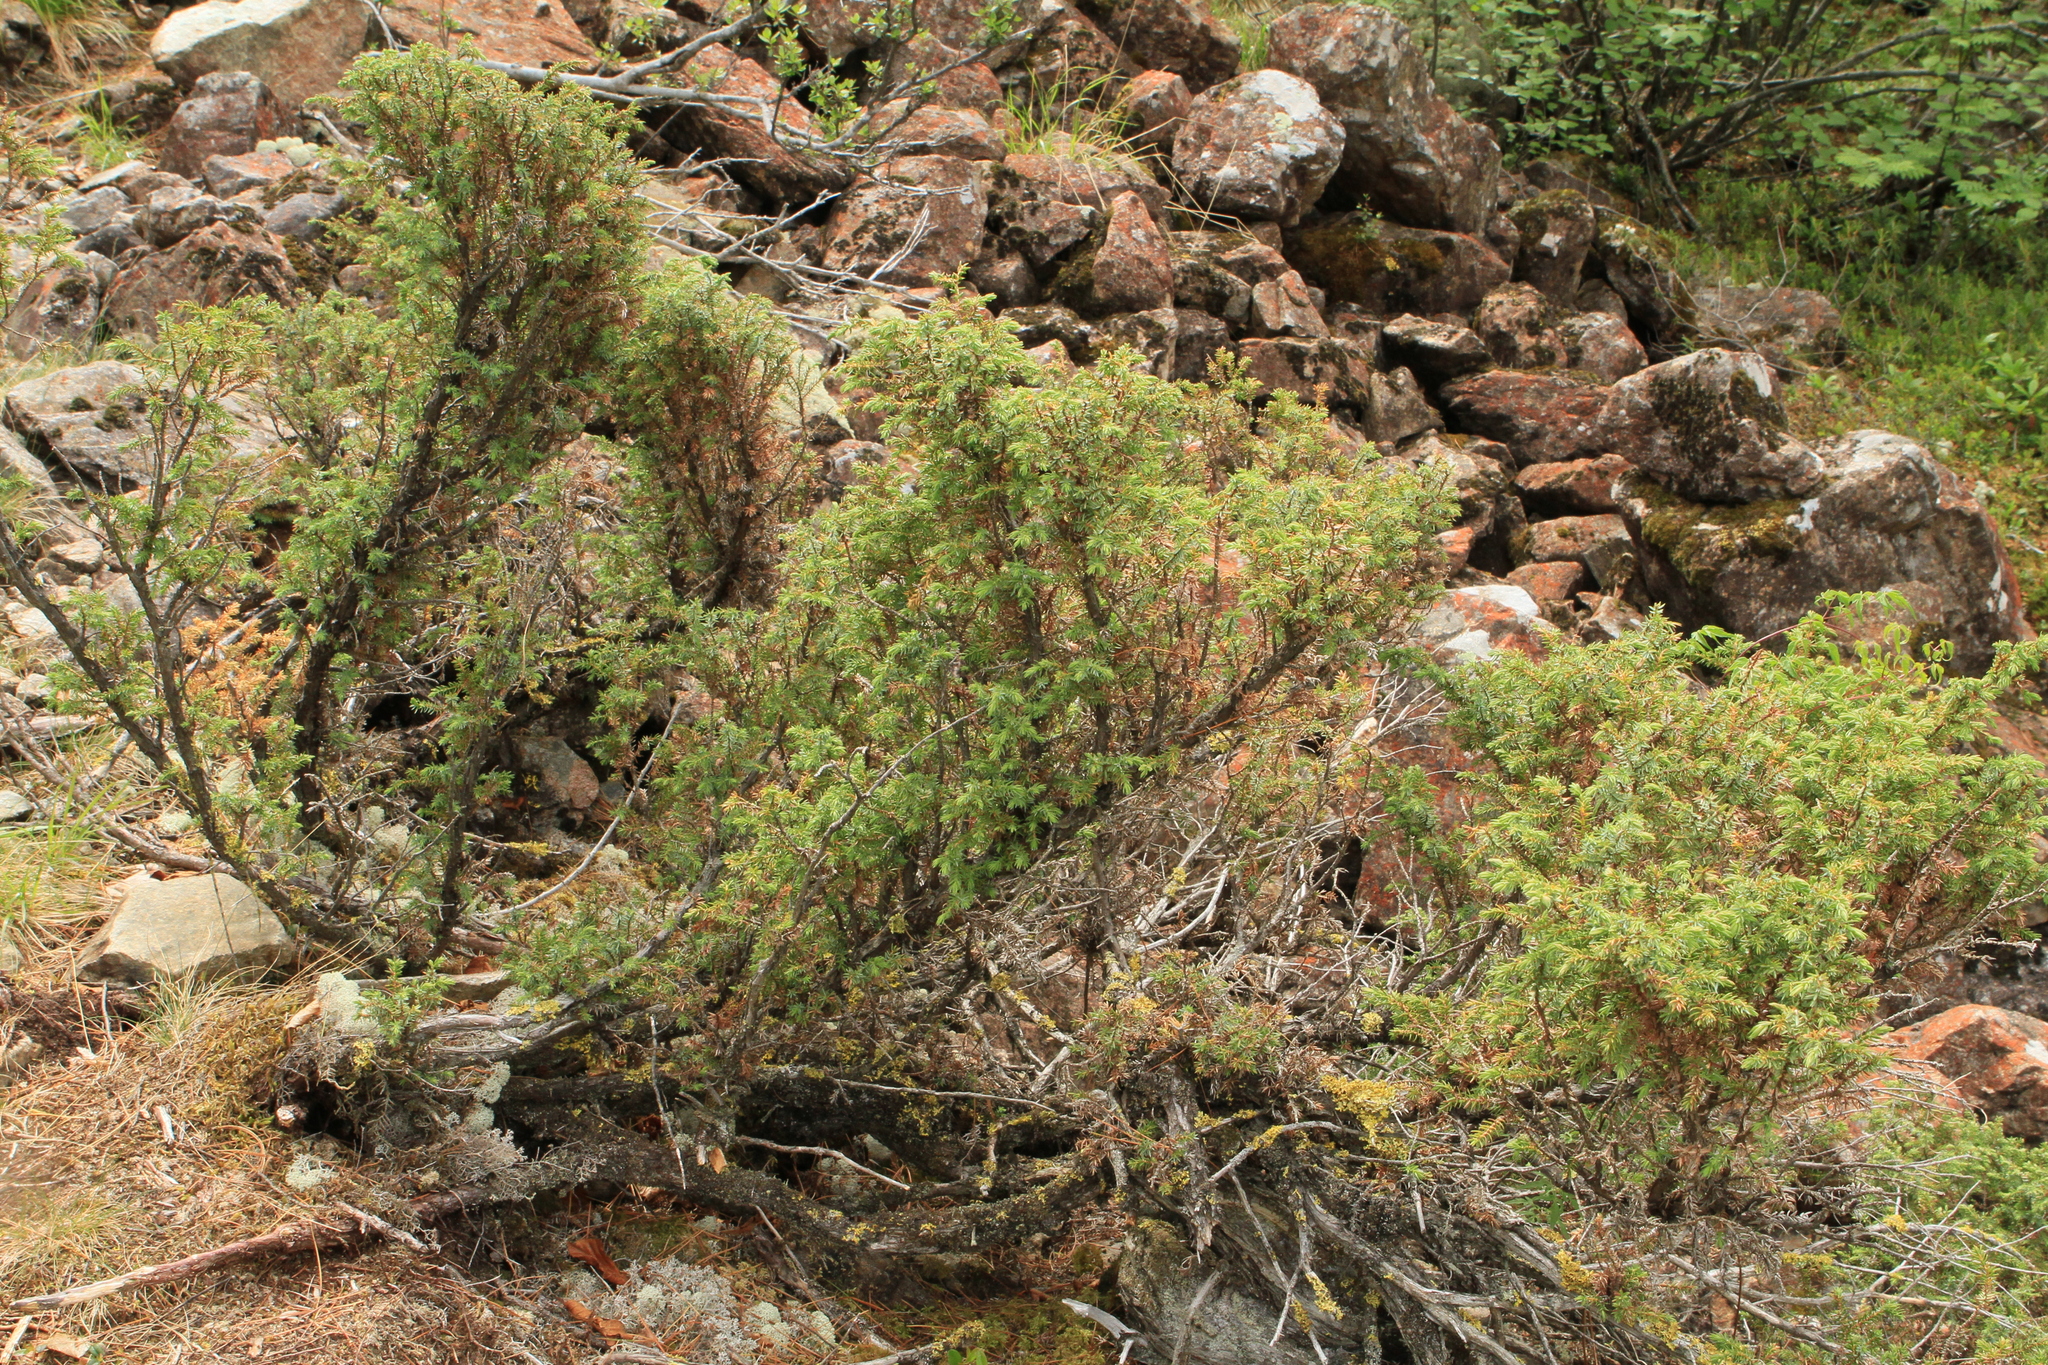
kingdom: Plantae
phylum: Tracheophyta
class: Pinopsida
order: Pinales
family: Cupressaceae
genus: Juniperus
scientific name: Juniperus communis
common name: Common juniper
